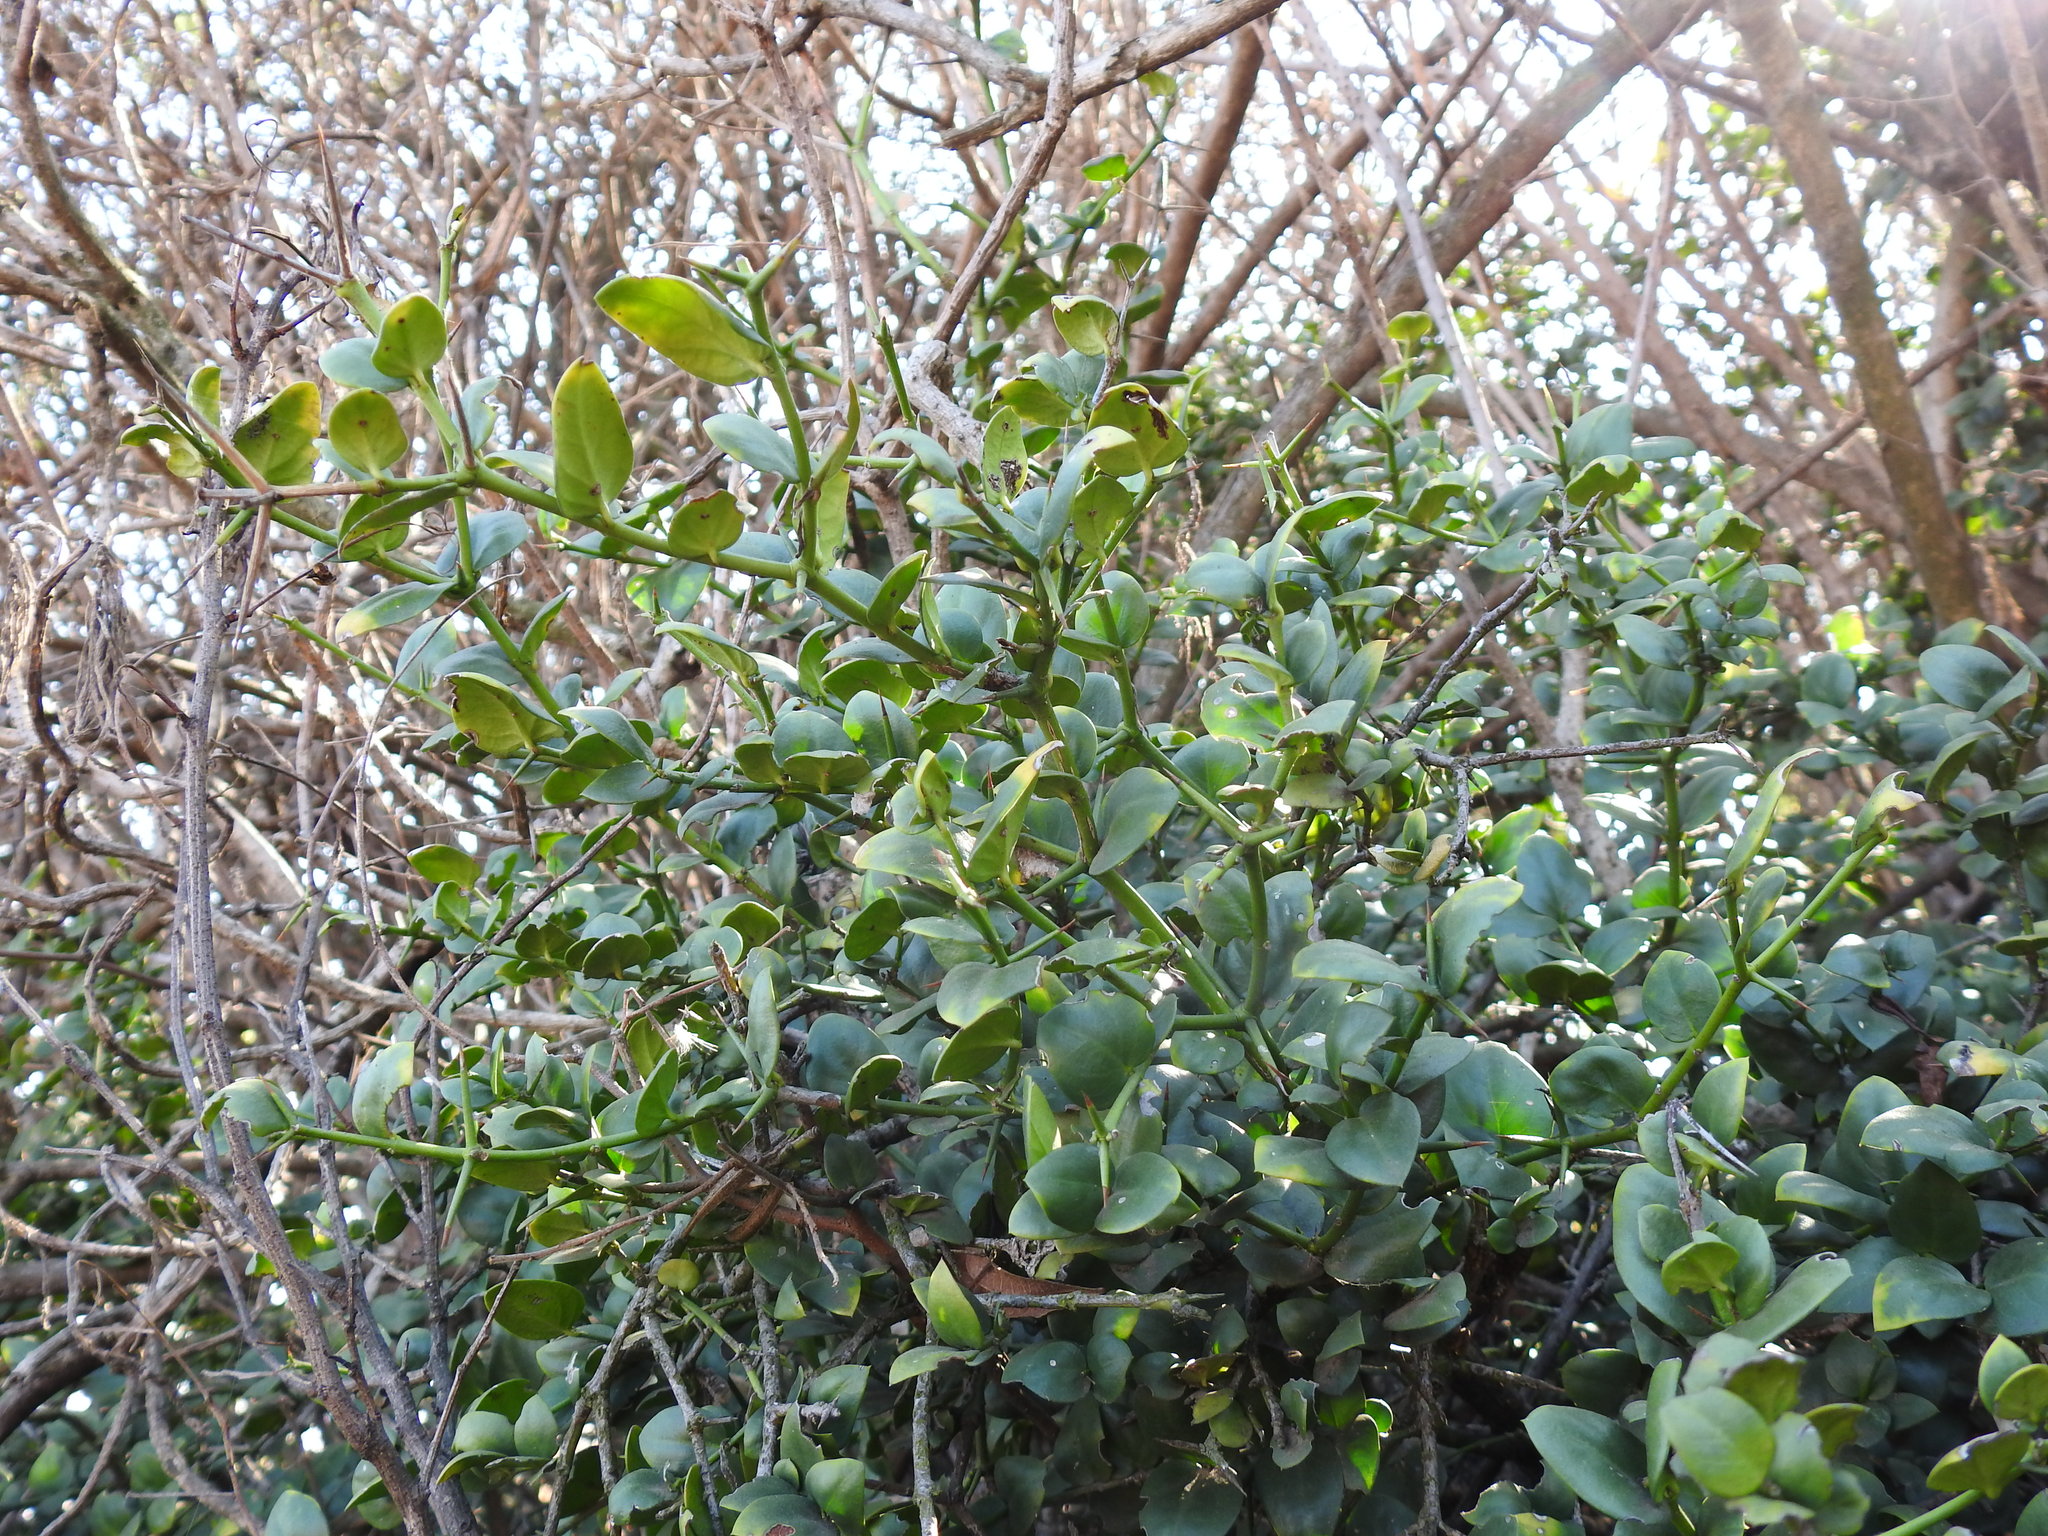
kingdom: Plantae
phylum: Tracheophyta
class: Magnoliopsida
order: Gentianales
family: Apocynaceae
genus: Carissa
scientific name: Carissa bispinosa
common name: Forest num-num
